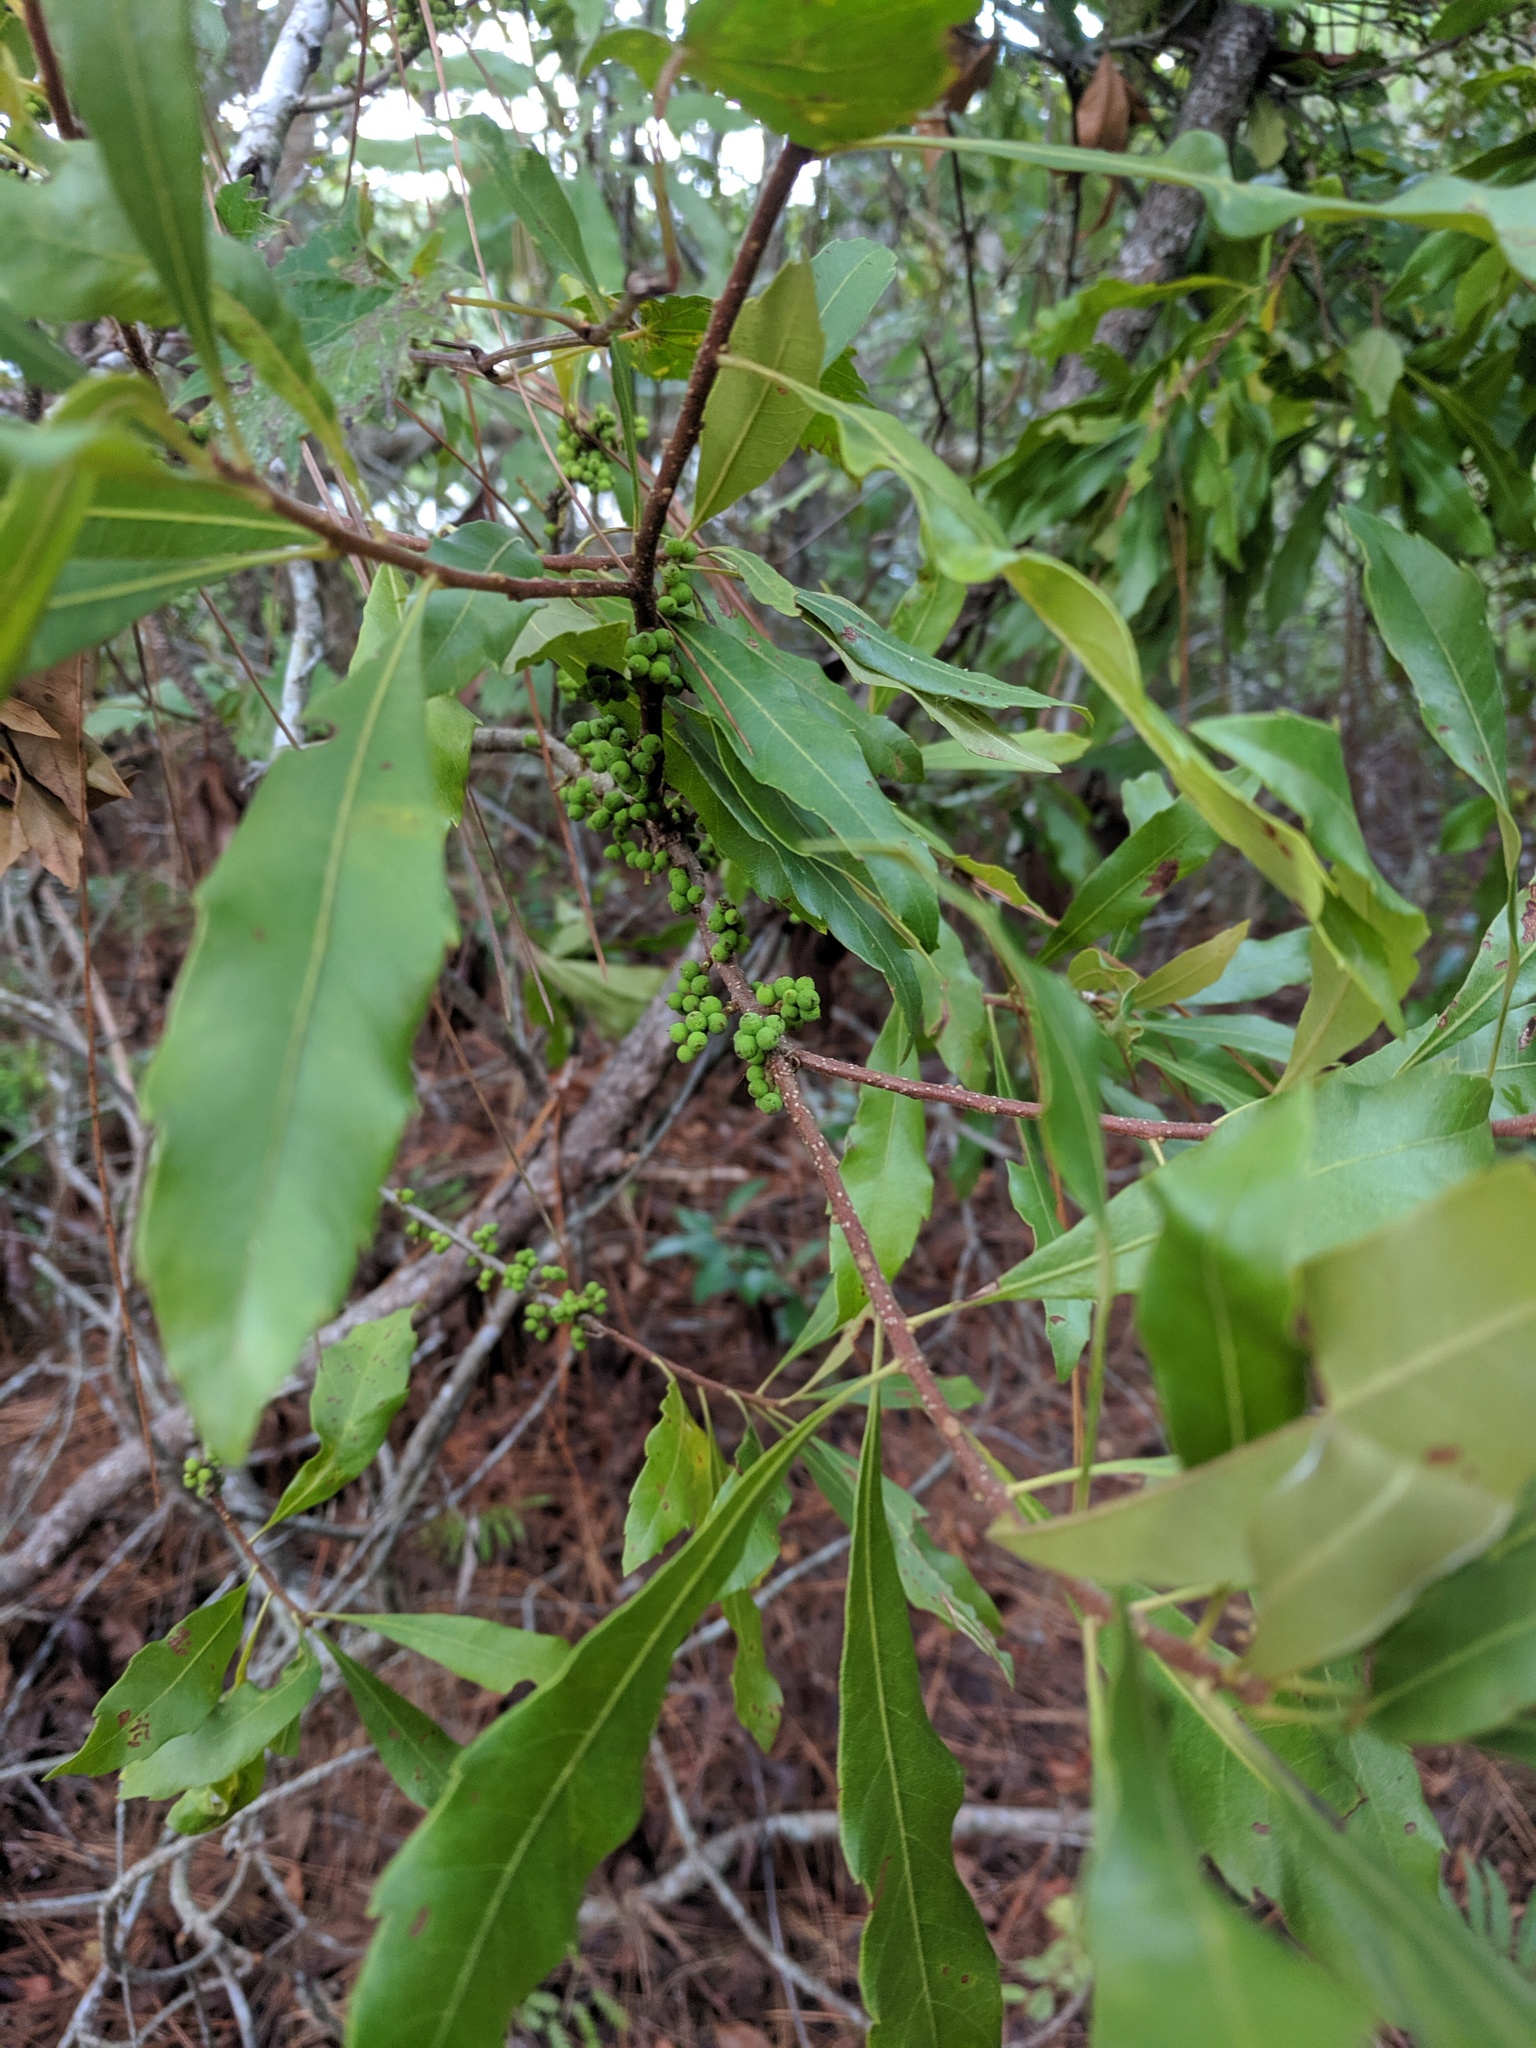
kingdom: Plantae
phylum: Tracheophyta
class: Magnoliopsida
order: Fagales
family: Myricaceae
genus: Morella
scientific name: Morella cerifera
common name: Wax myrtle
